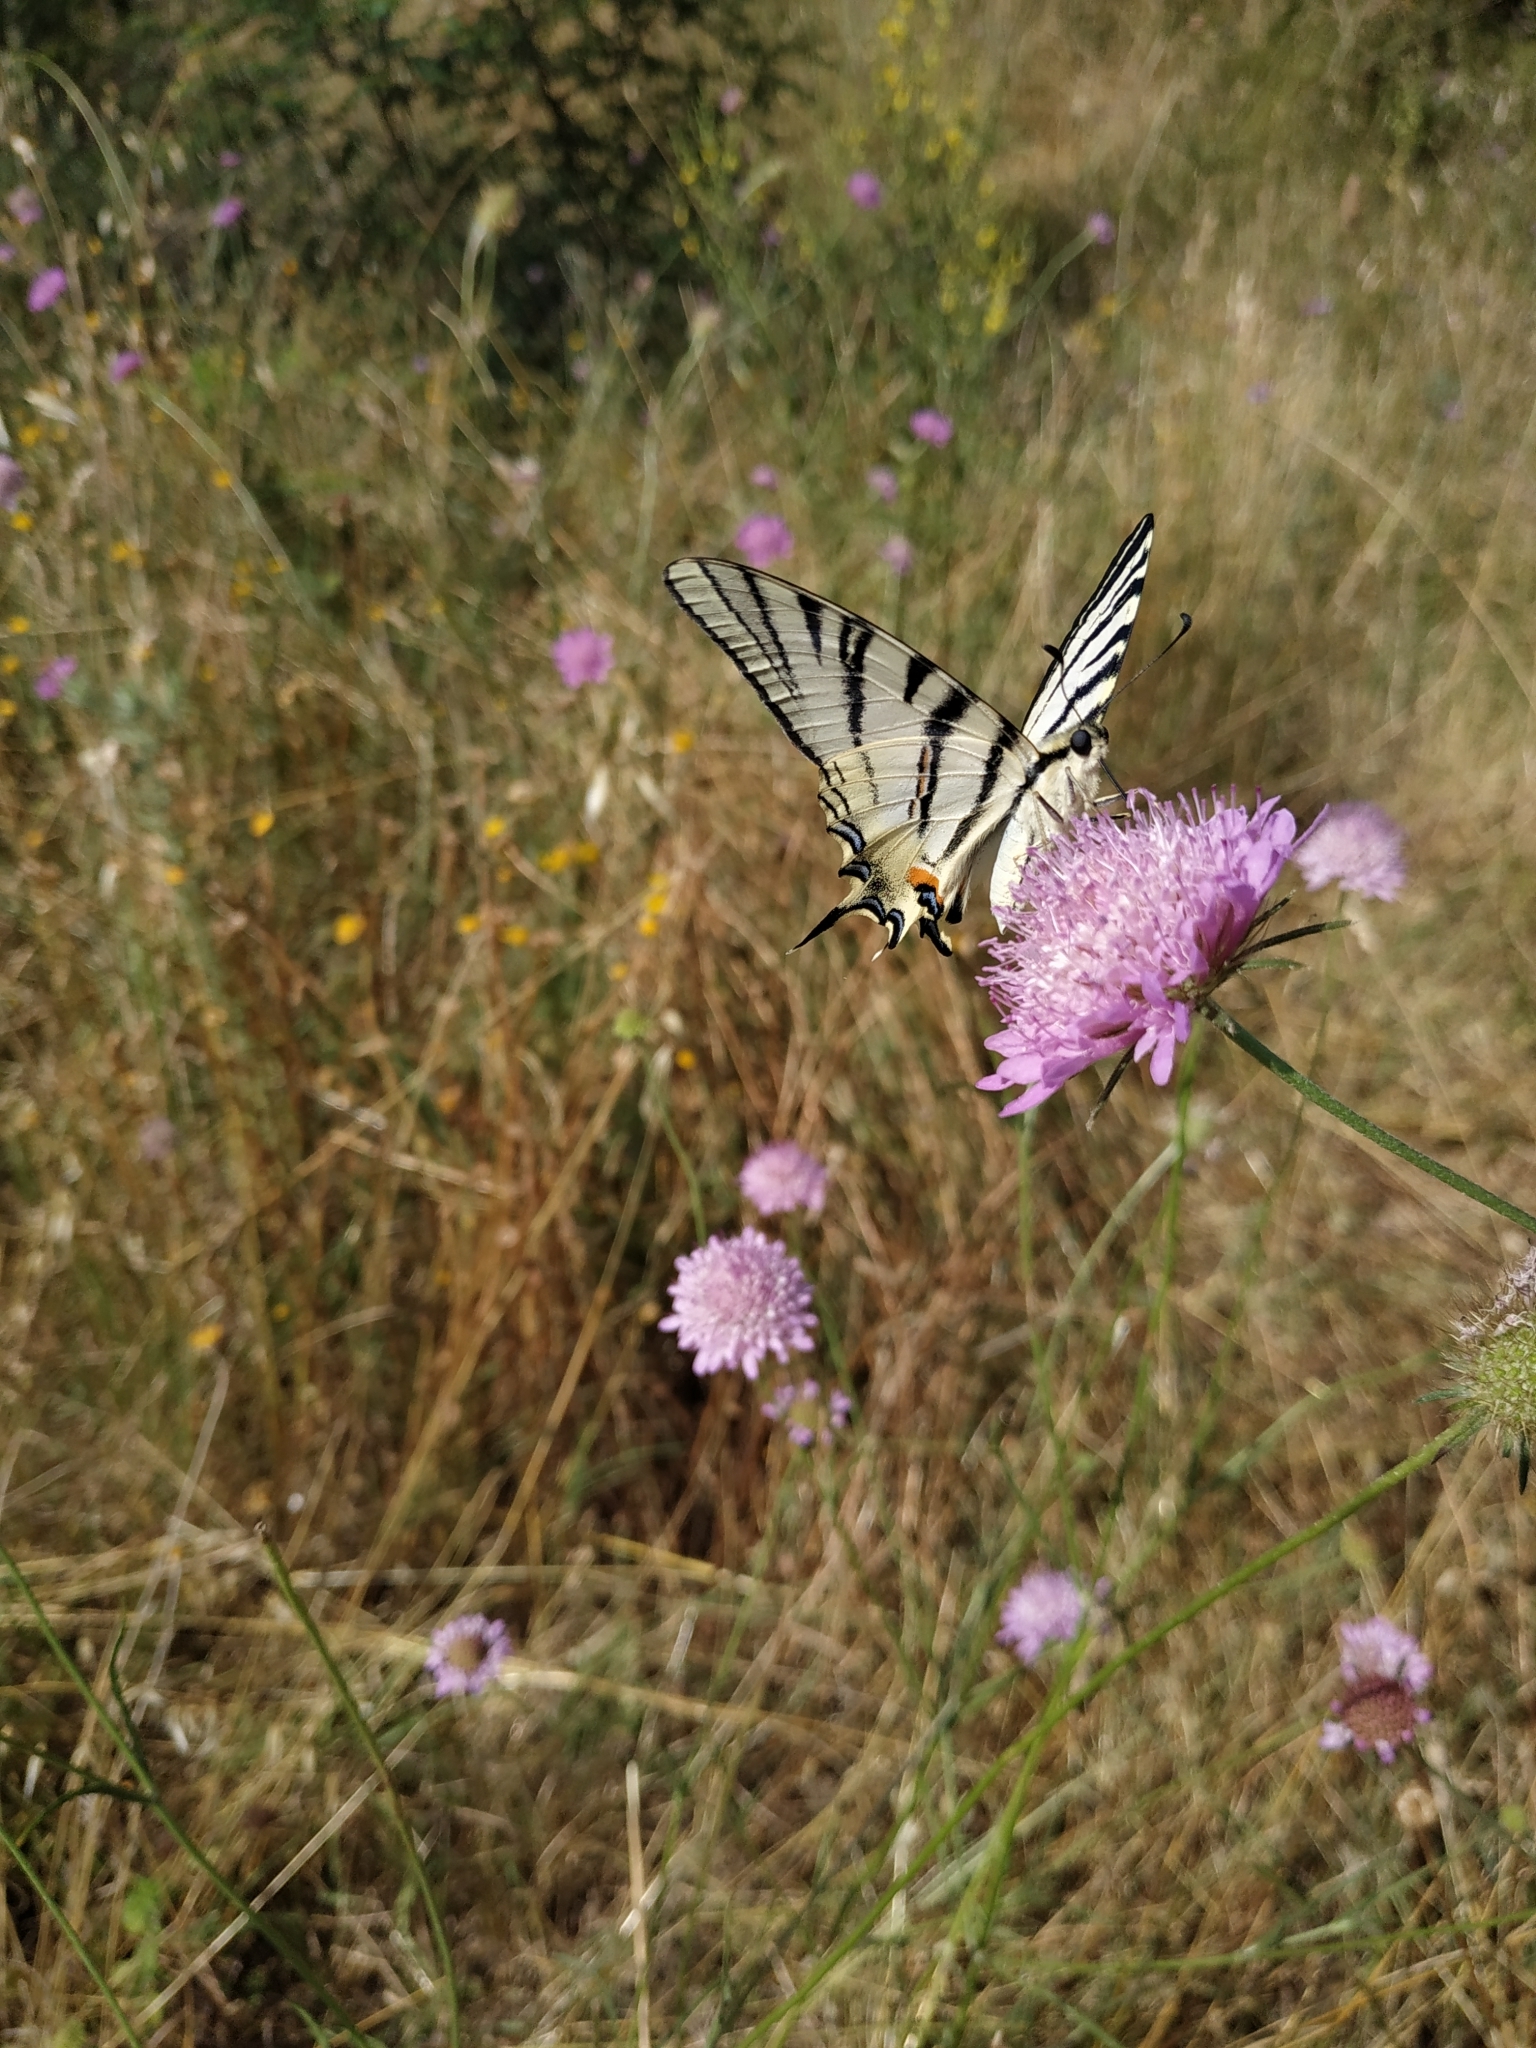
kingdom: Animalia
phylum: Arthropoda
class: Insecta
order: Lepidoptera
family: Papilionidae
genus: Iphiclides
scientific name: Iphiclides podalirius
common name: Scarce swallowtail
